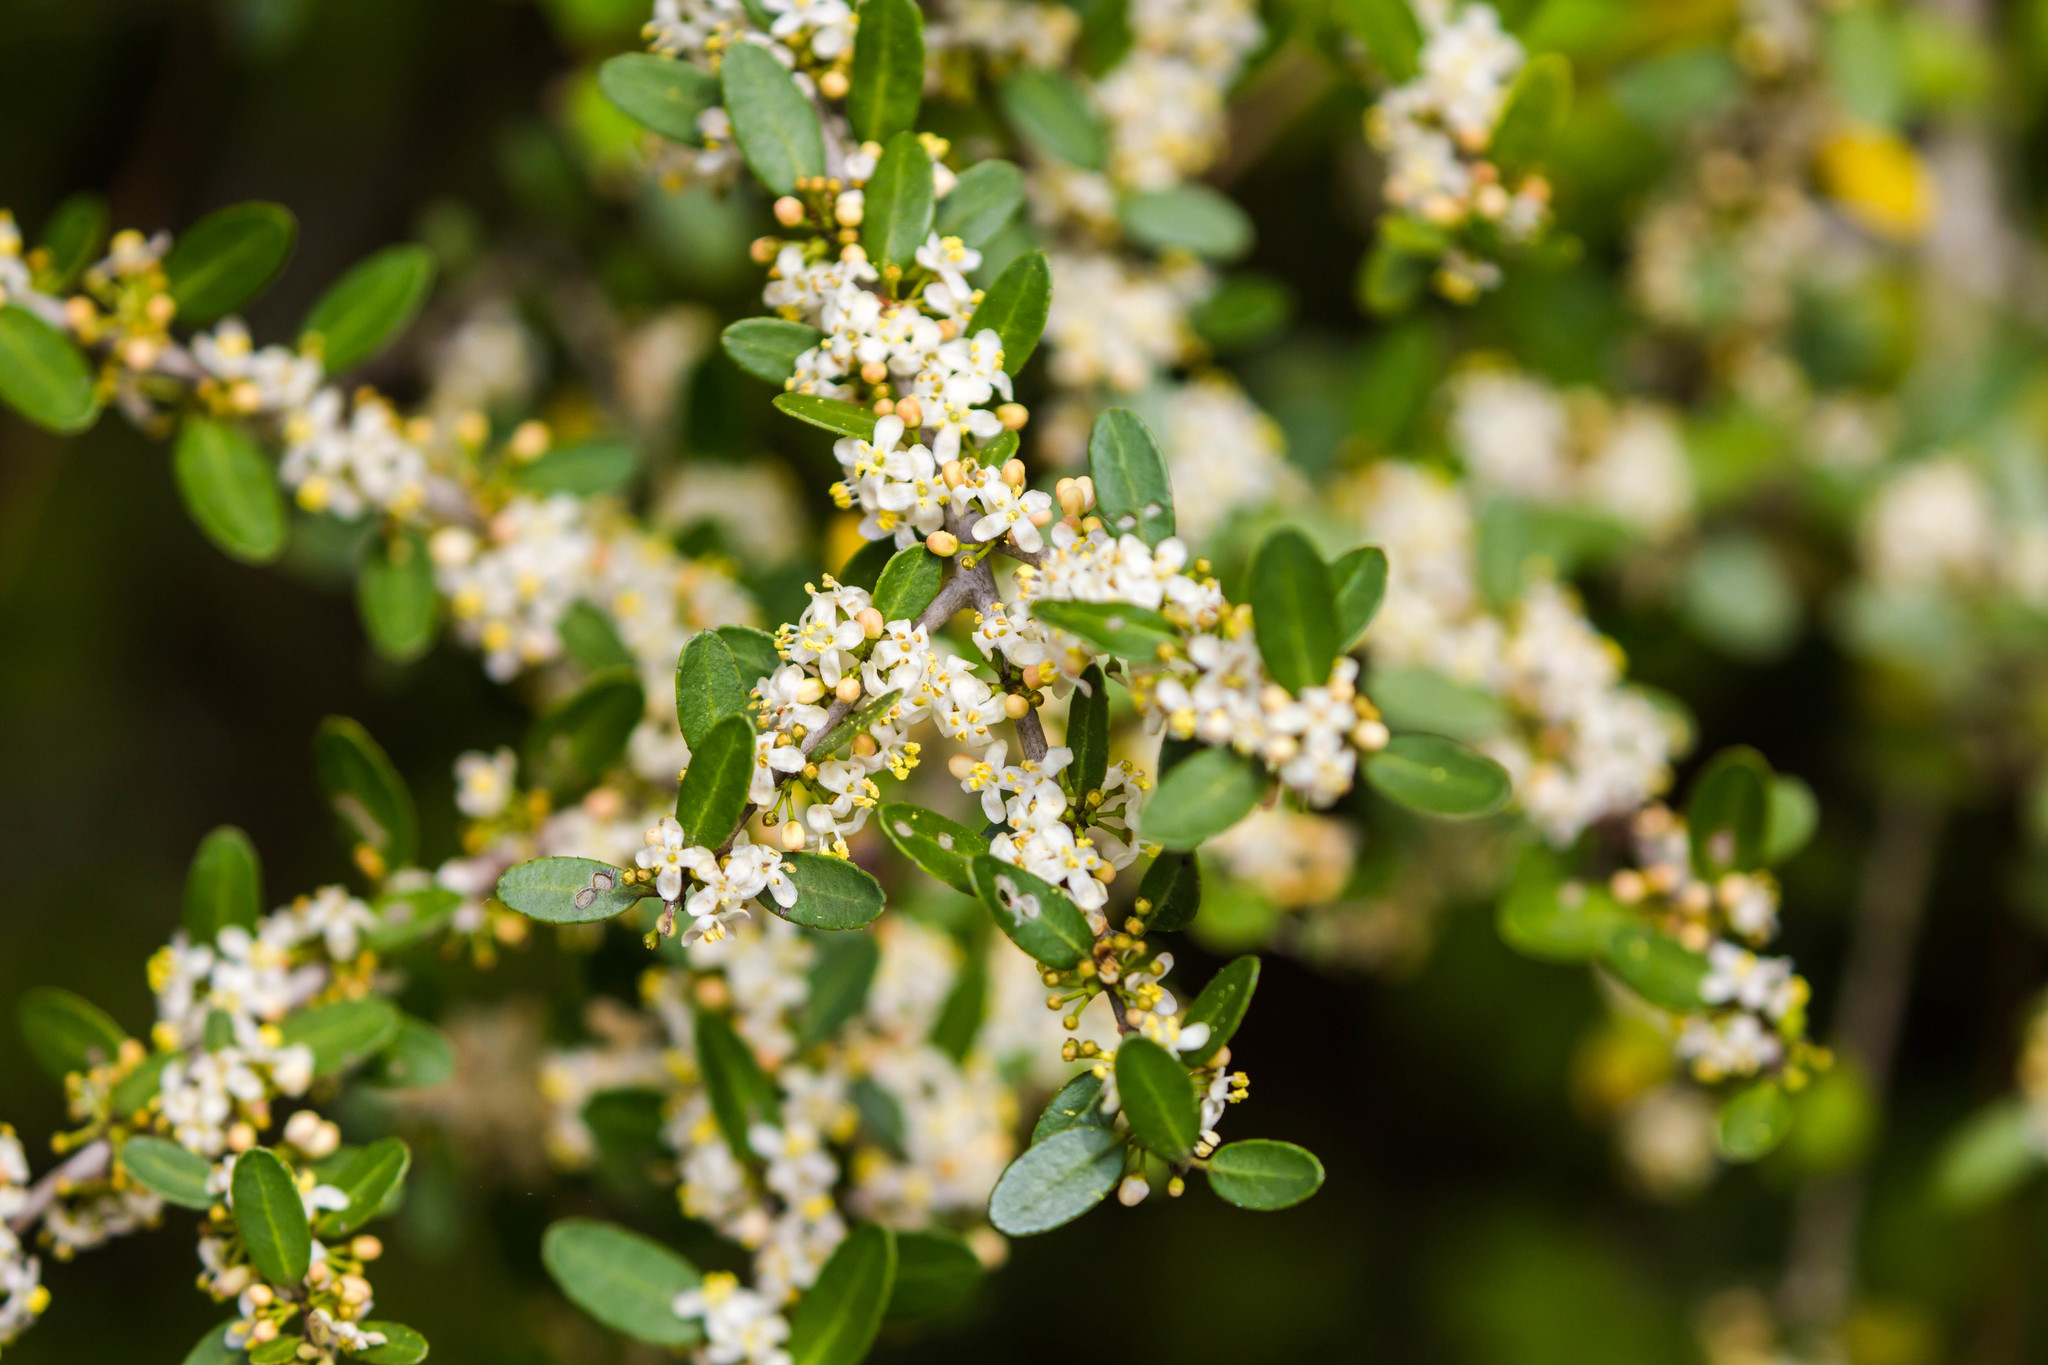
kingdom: Plantae
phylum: Tracheophyta
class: Magnoliopsida
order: Aquifoliales
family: Aquifoliaceae
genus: Ilex
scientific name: Ilex vomitoria
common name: Yaupon holly
